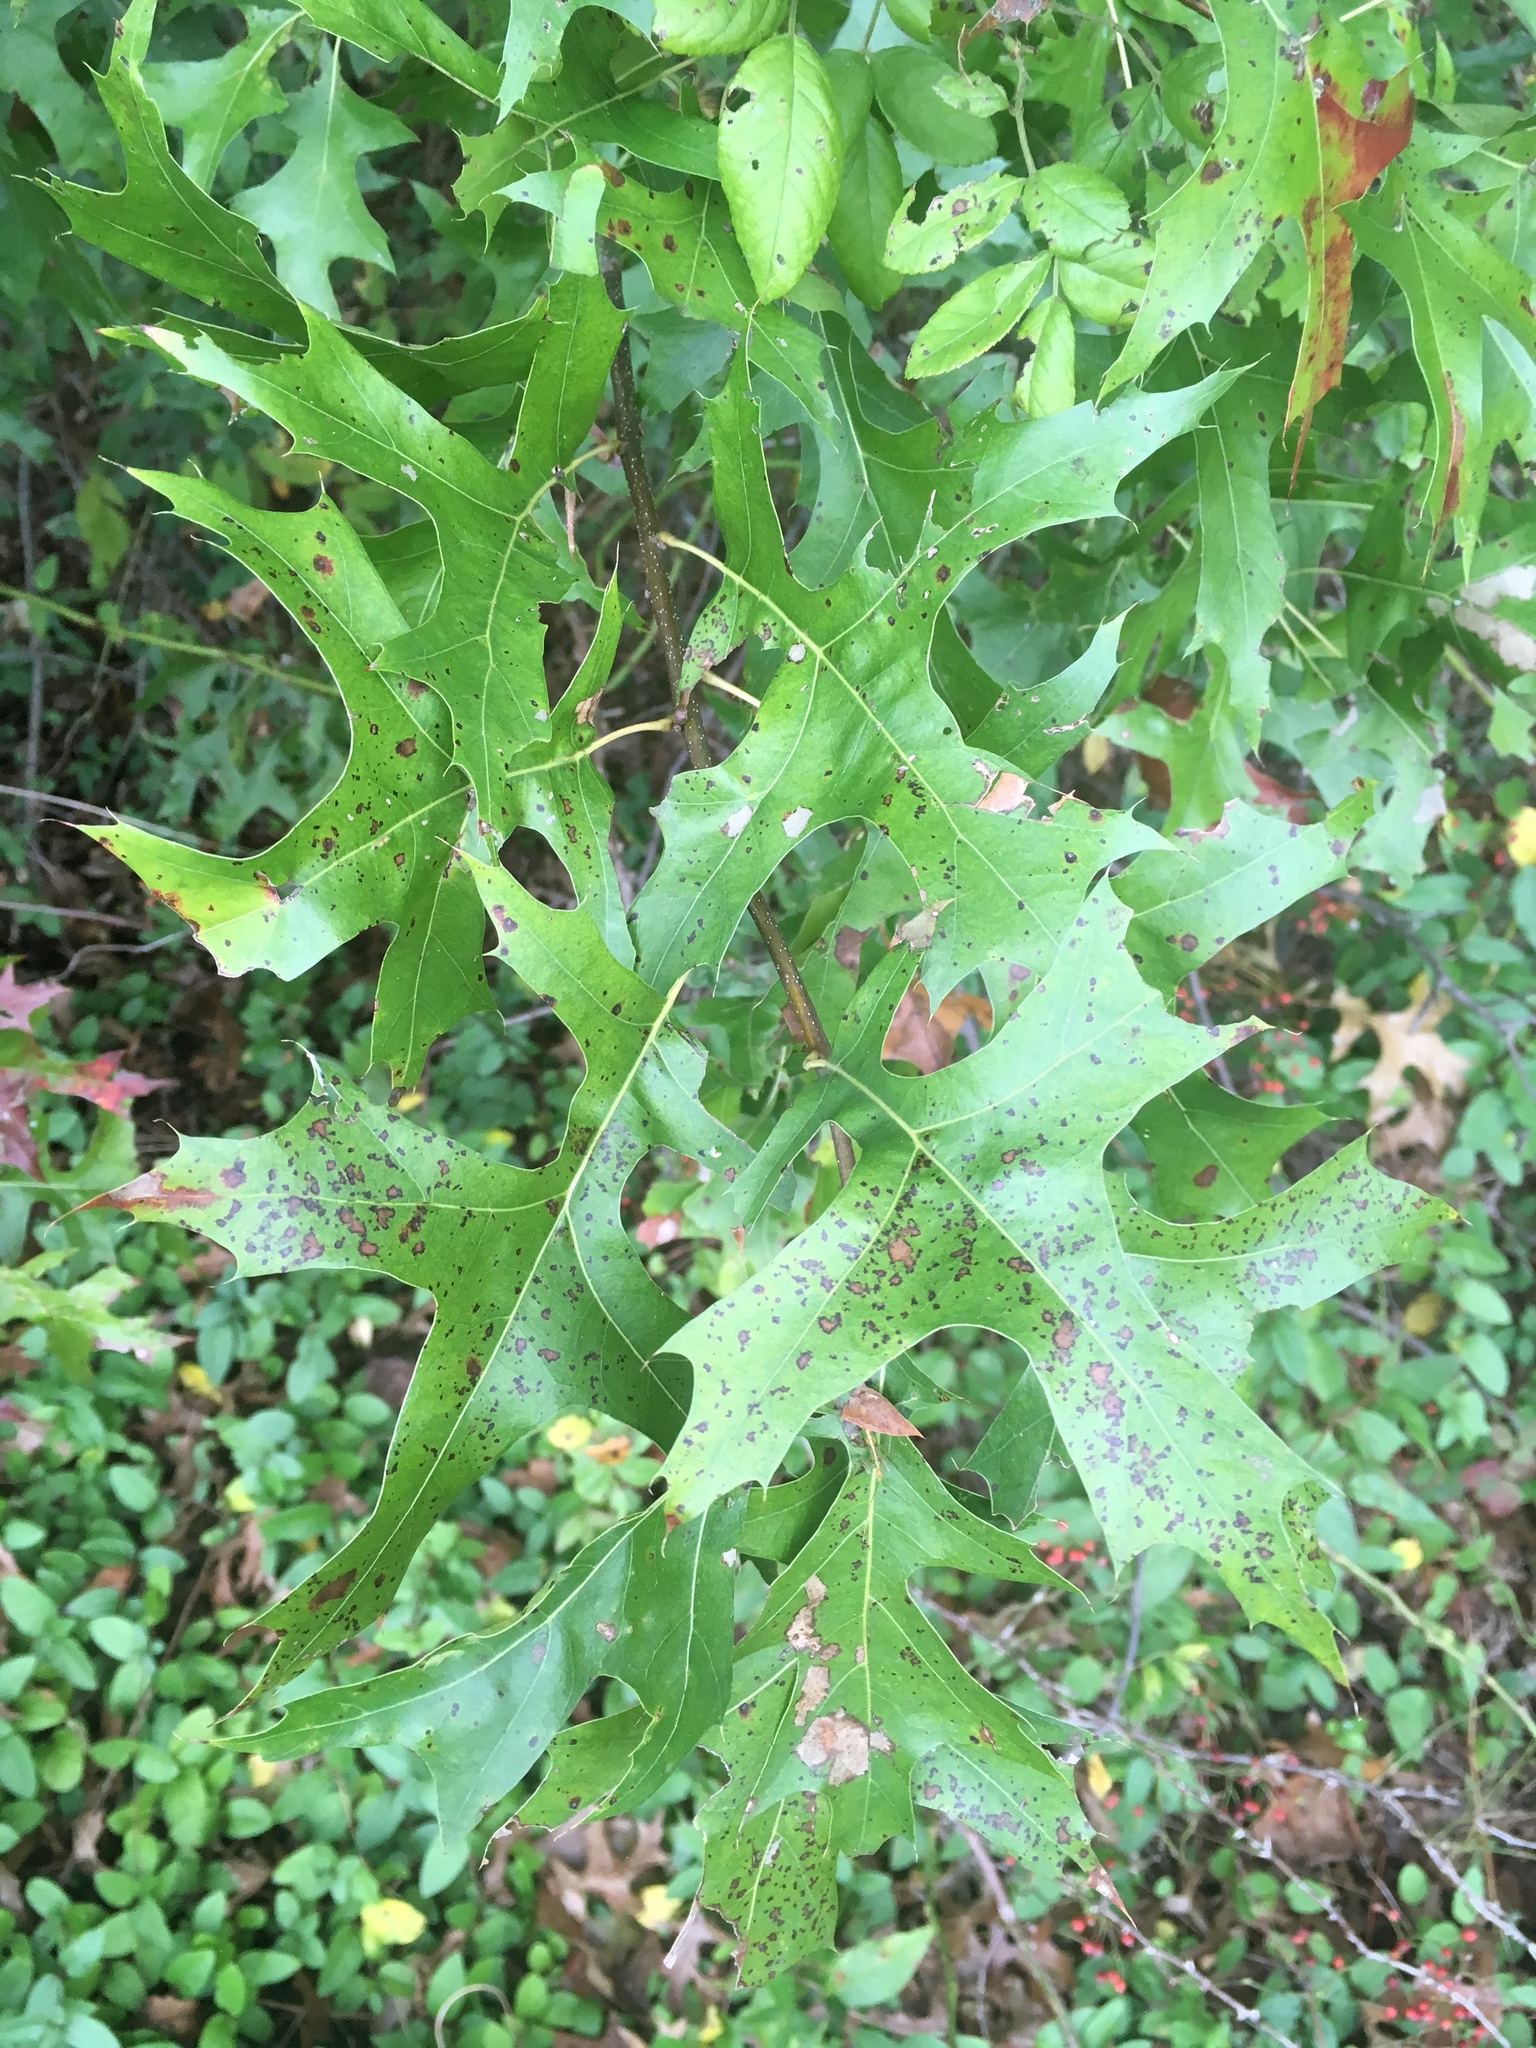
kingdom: Plantae
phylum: Tracheophyta
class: Magnoliopsida
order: Fagales
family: Fagaceae
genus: Quercus
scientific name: Quercus palustris
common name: Pin oak
